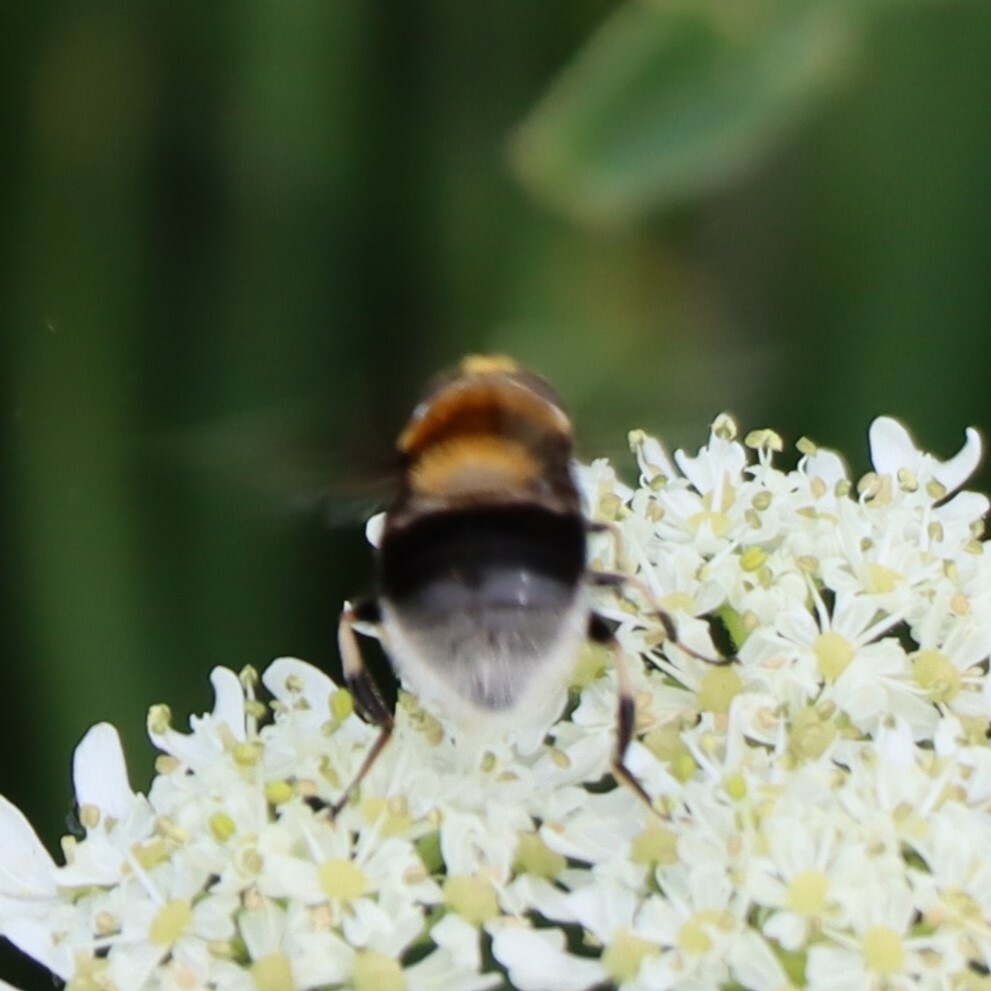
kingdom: Animalia
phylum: Arthropoda
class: Insecta
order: Diptera
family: Syrphidae
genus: Eristalis
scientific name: Eristalis intricaria
